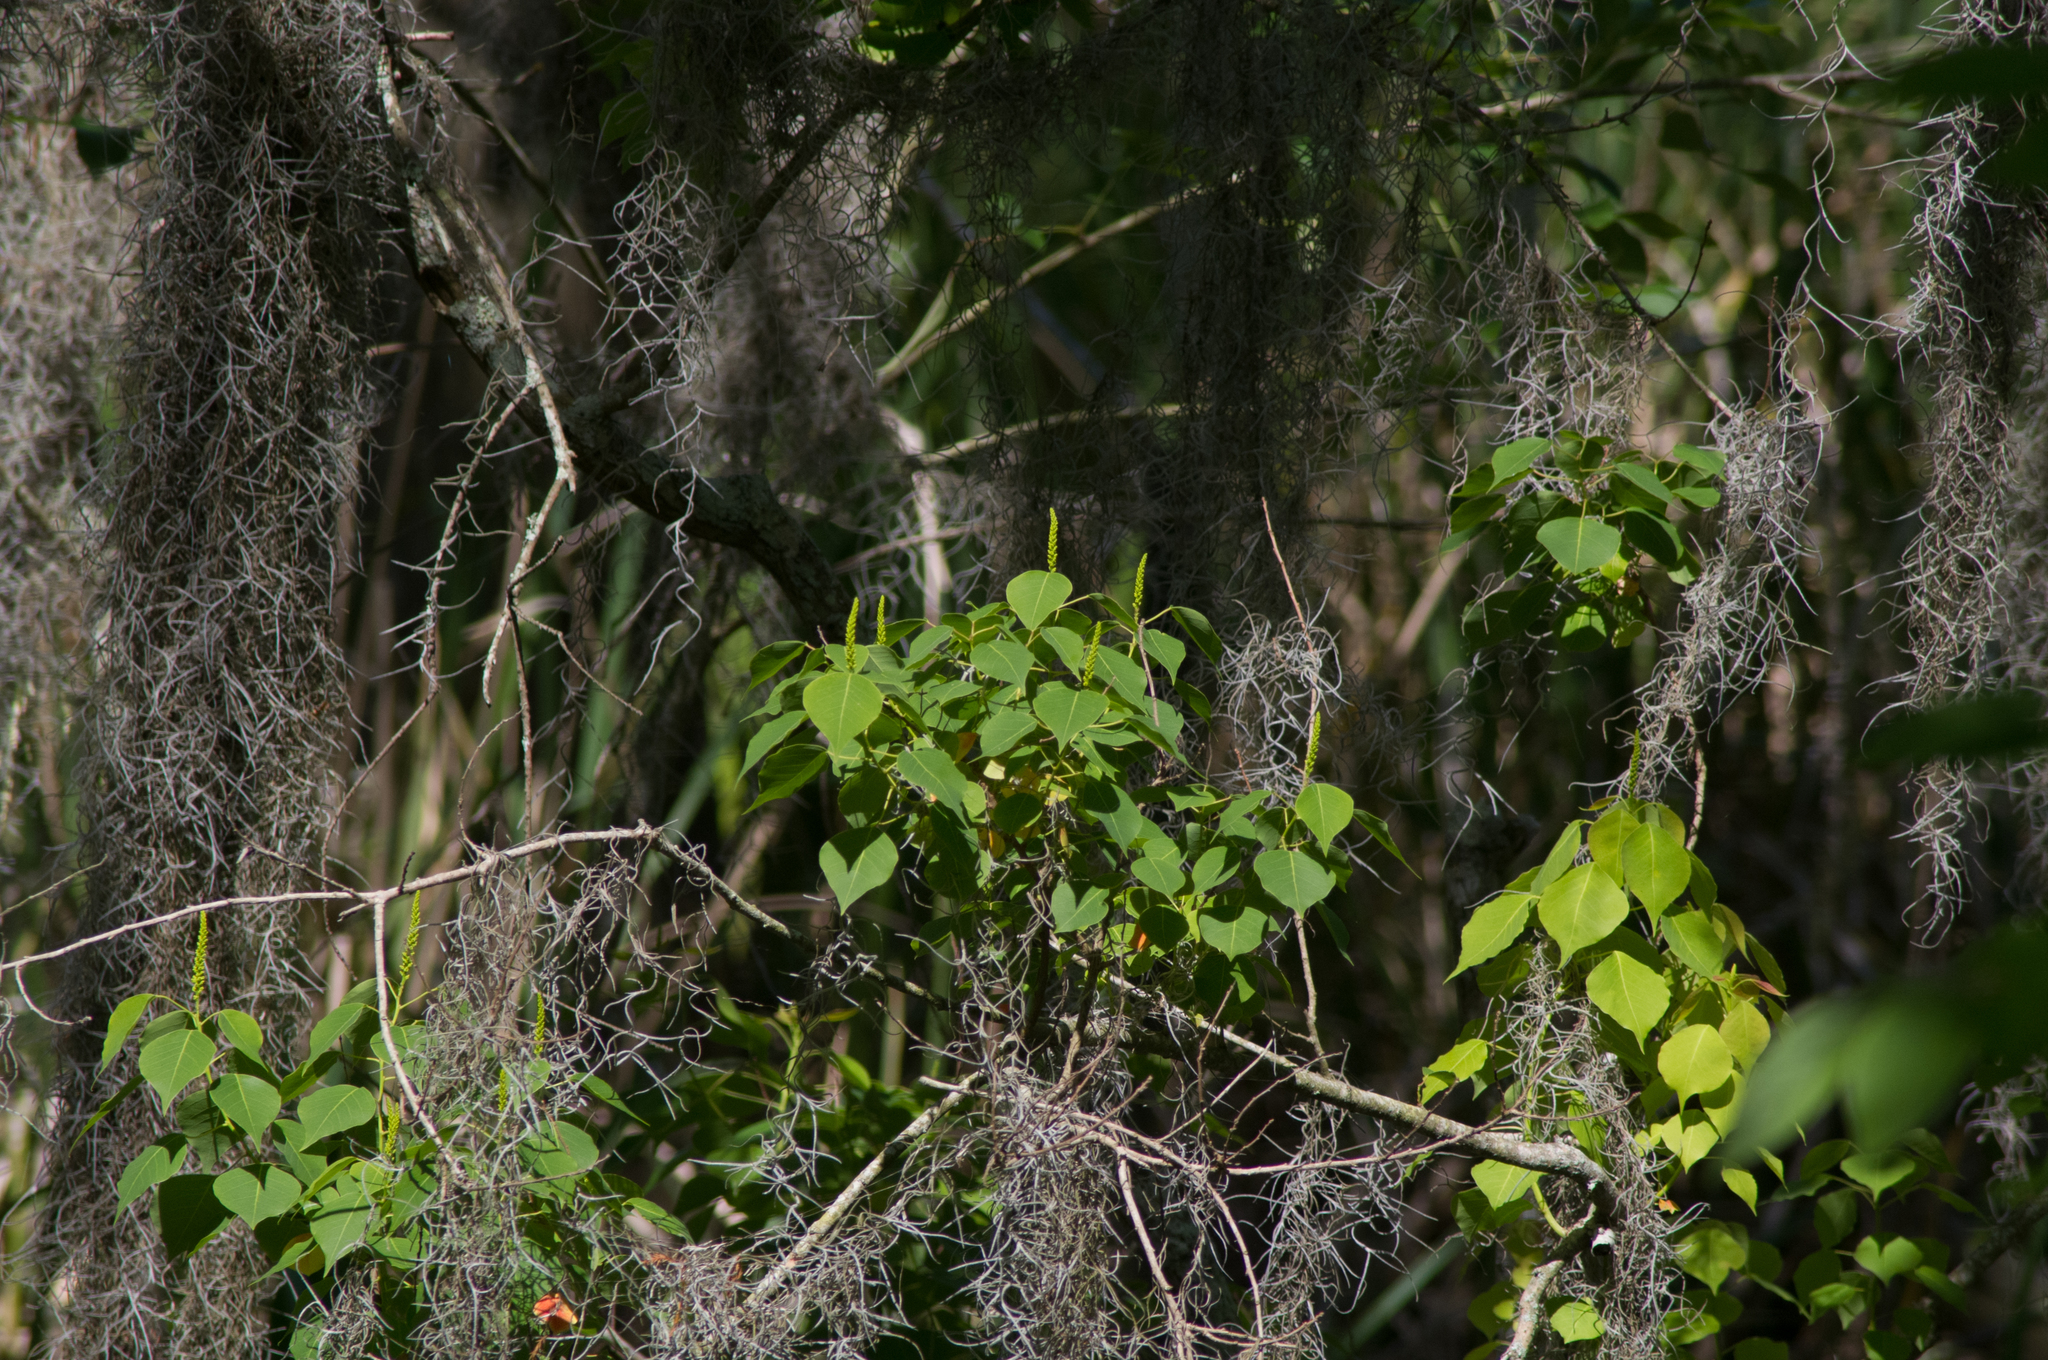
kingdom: Plantae
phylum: Tracheophyta
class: Magnoliopsida
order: Malpighiales
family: Euphorbiaceae
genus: Triadica
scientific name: Triadica sebifera
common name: Chinese tallow
